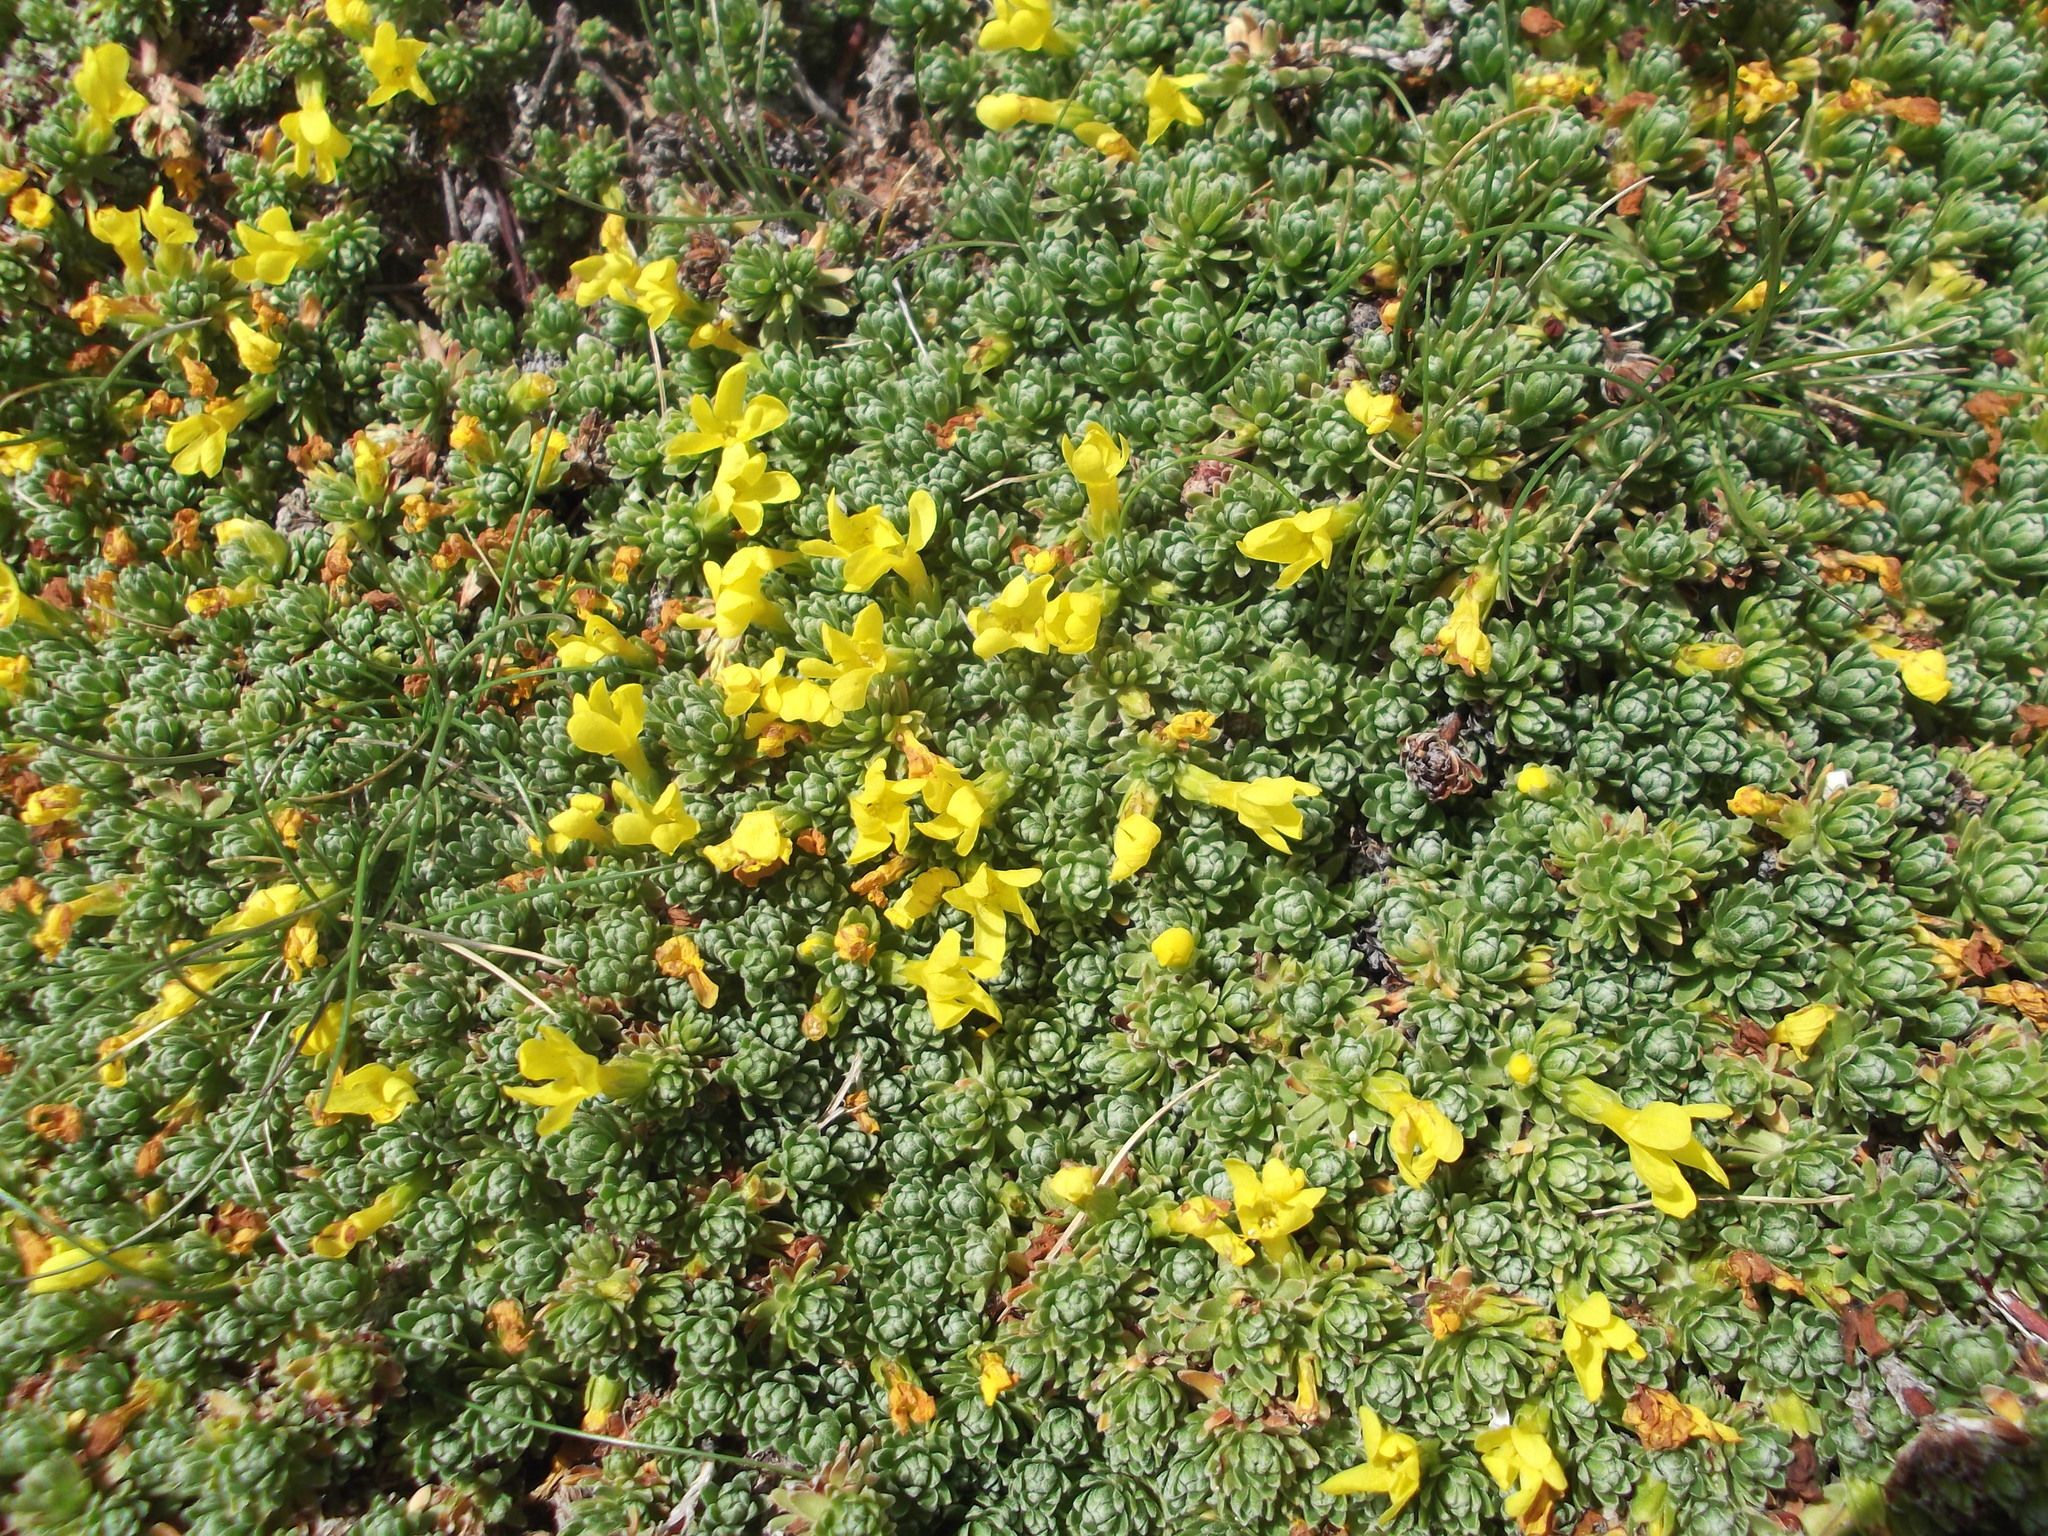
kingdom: Plantae
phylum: Tracheophyta
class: Magnoliopsida
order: Ericales
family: Primulaceae
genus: Androsace
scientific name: Androsace vitaliana
